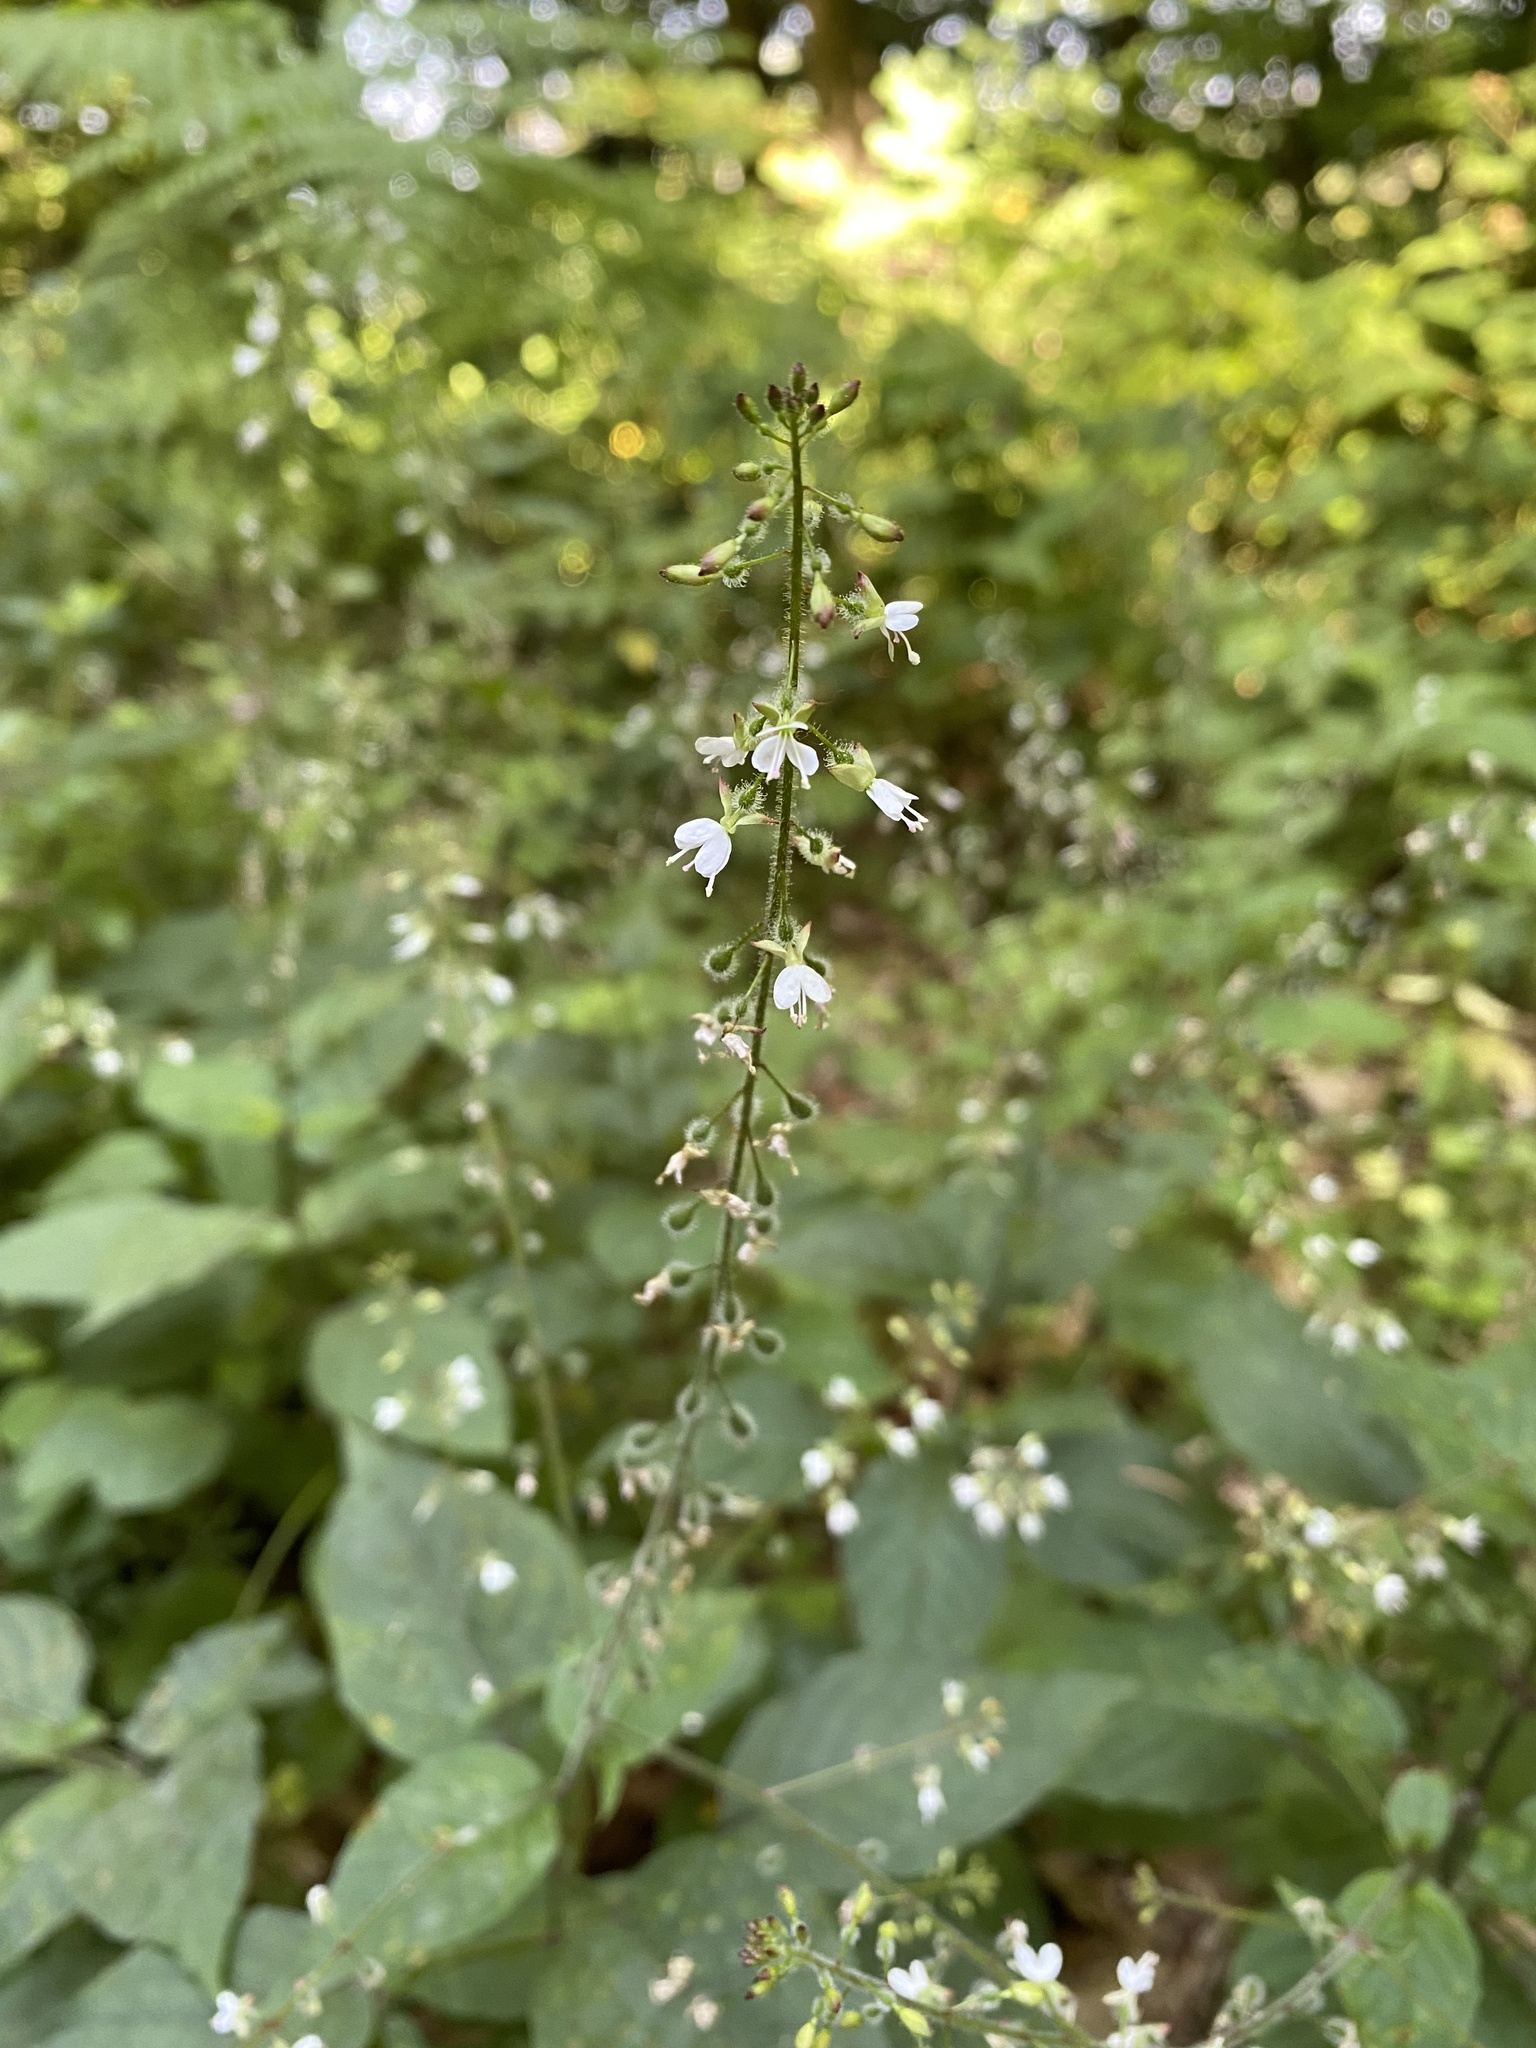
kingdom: Plantae
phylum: Tracheophyta
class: Magnoliopsida
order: Myrtales
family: Onagraceae
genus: Circaea
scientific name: Circaea lutetiana
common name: Enchanter's-nightshade
